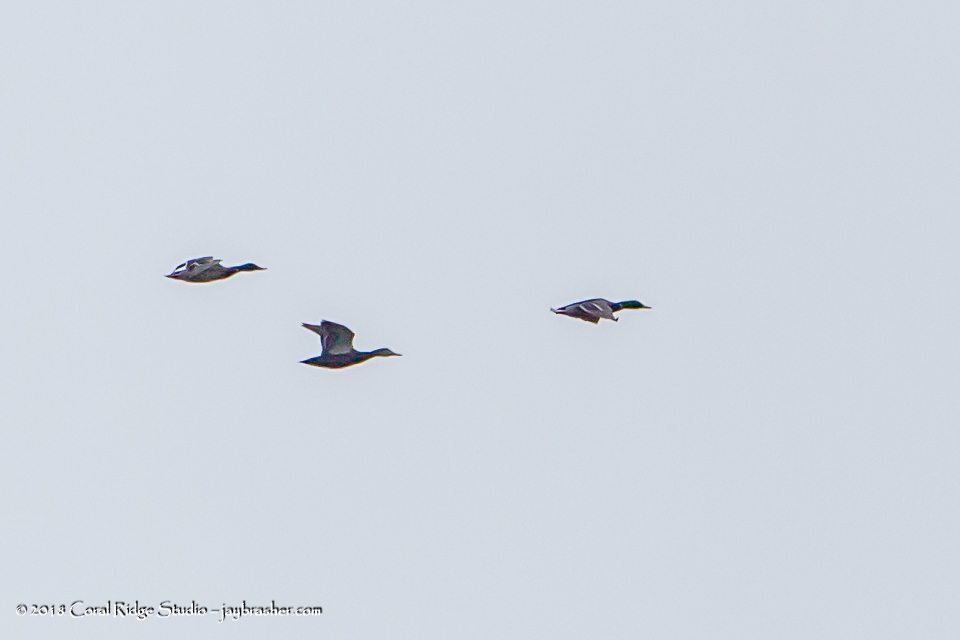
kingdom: Animalia
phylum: Chordata
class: Aves
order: Anseriformes
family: Anatidae
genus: Anas
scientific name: Anas platyrhynchos
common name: Mallard
